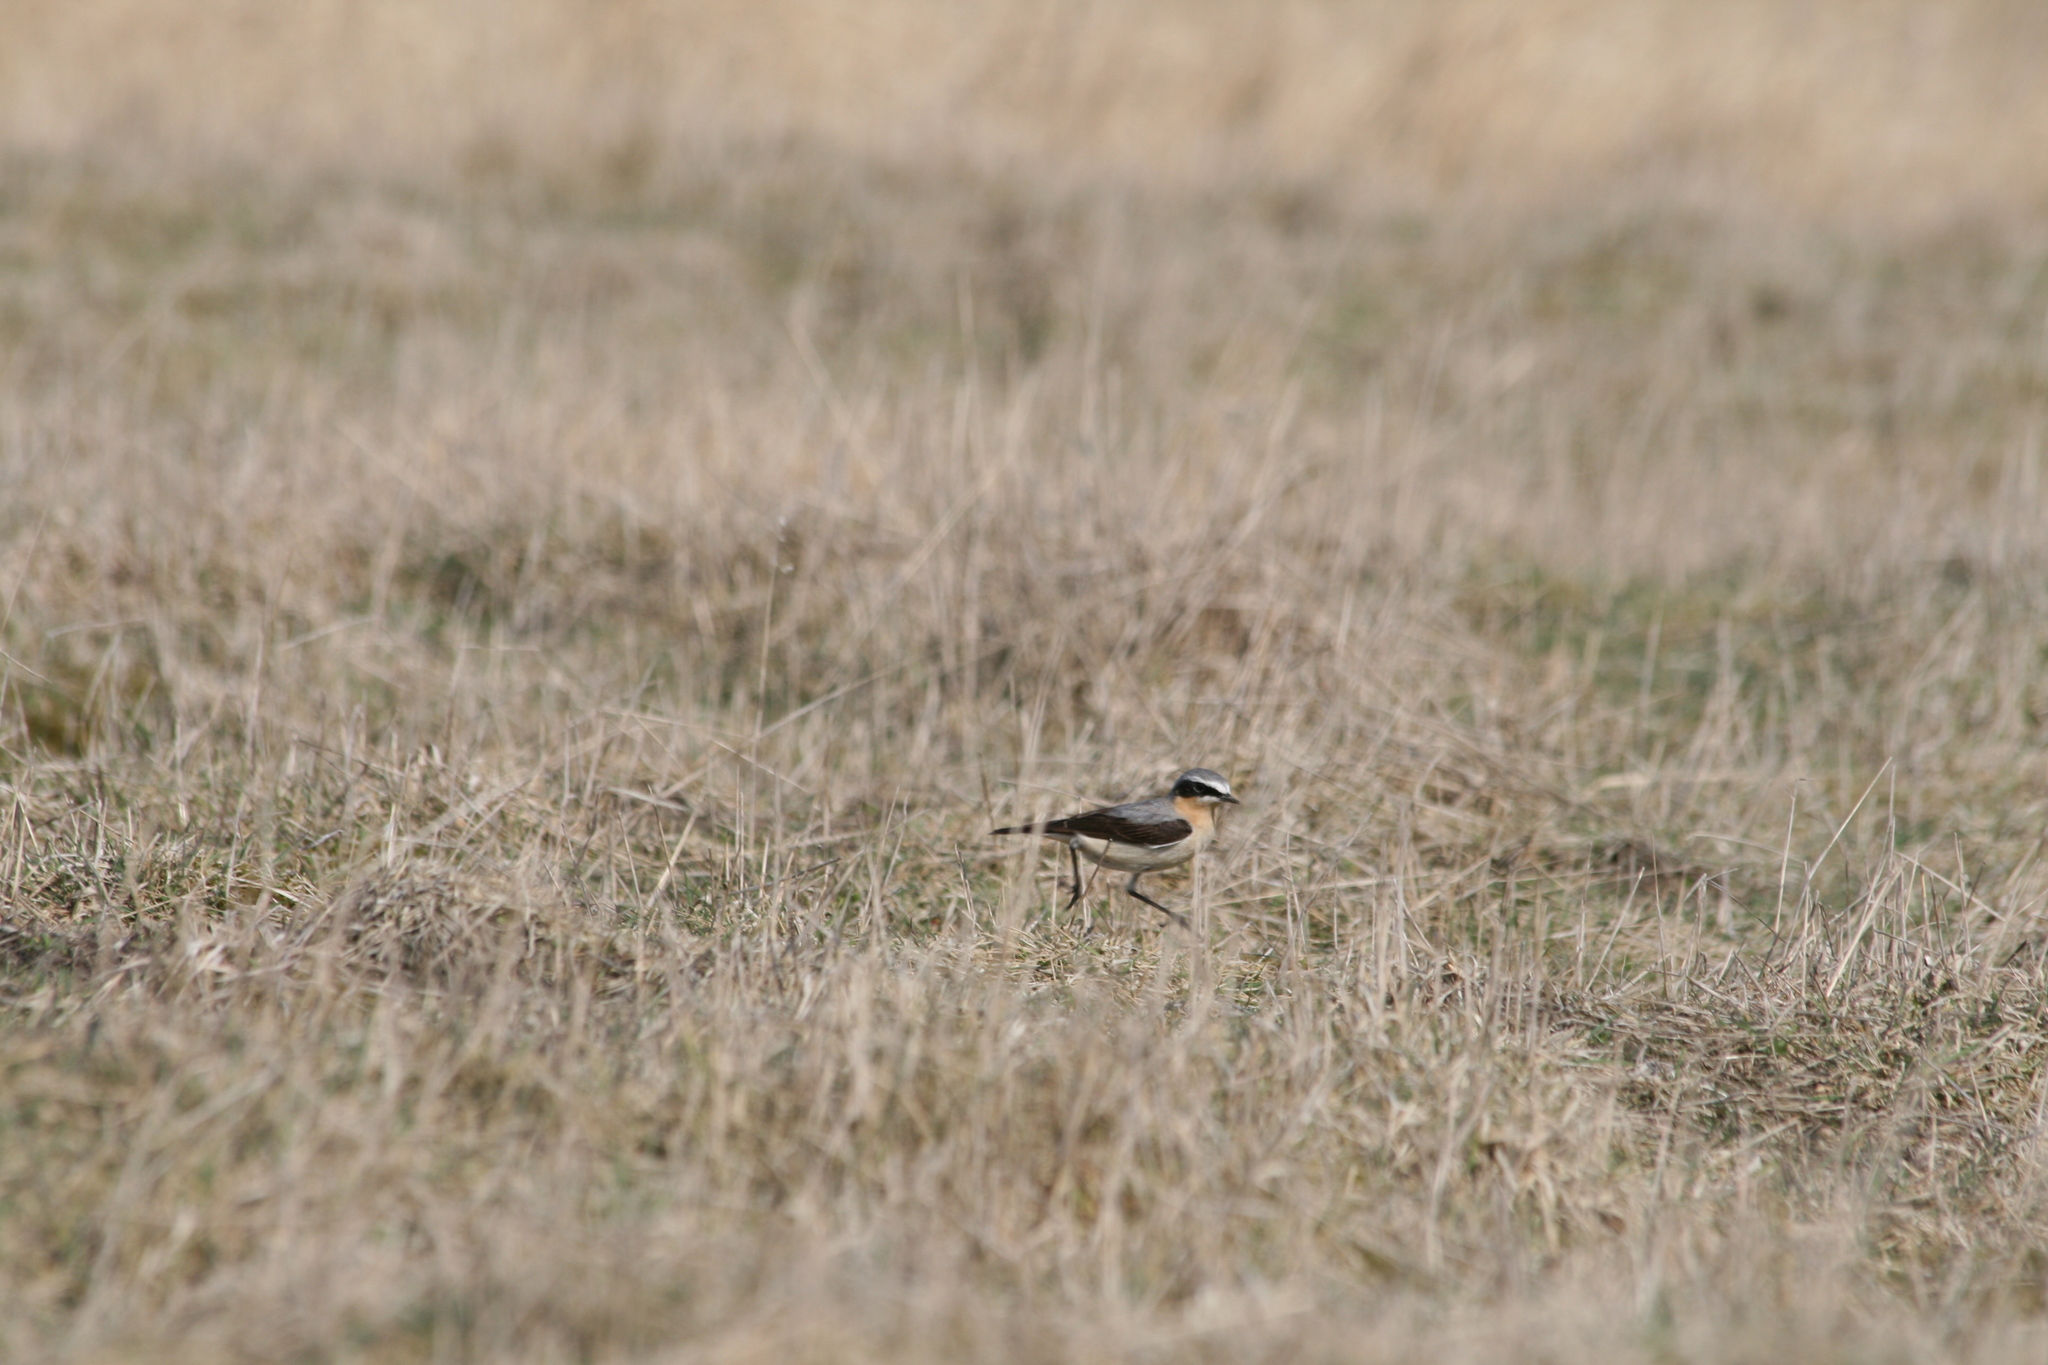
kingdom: Animalia
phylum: Chordata
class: Aves
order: Passeriformes
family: Muscicapidae
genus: Oenanthe
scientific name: Oenanthe oenanthe
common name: Northern wheatear
